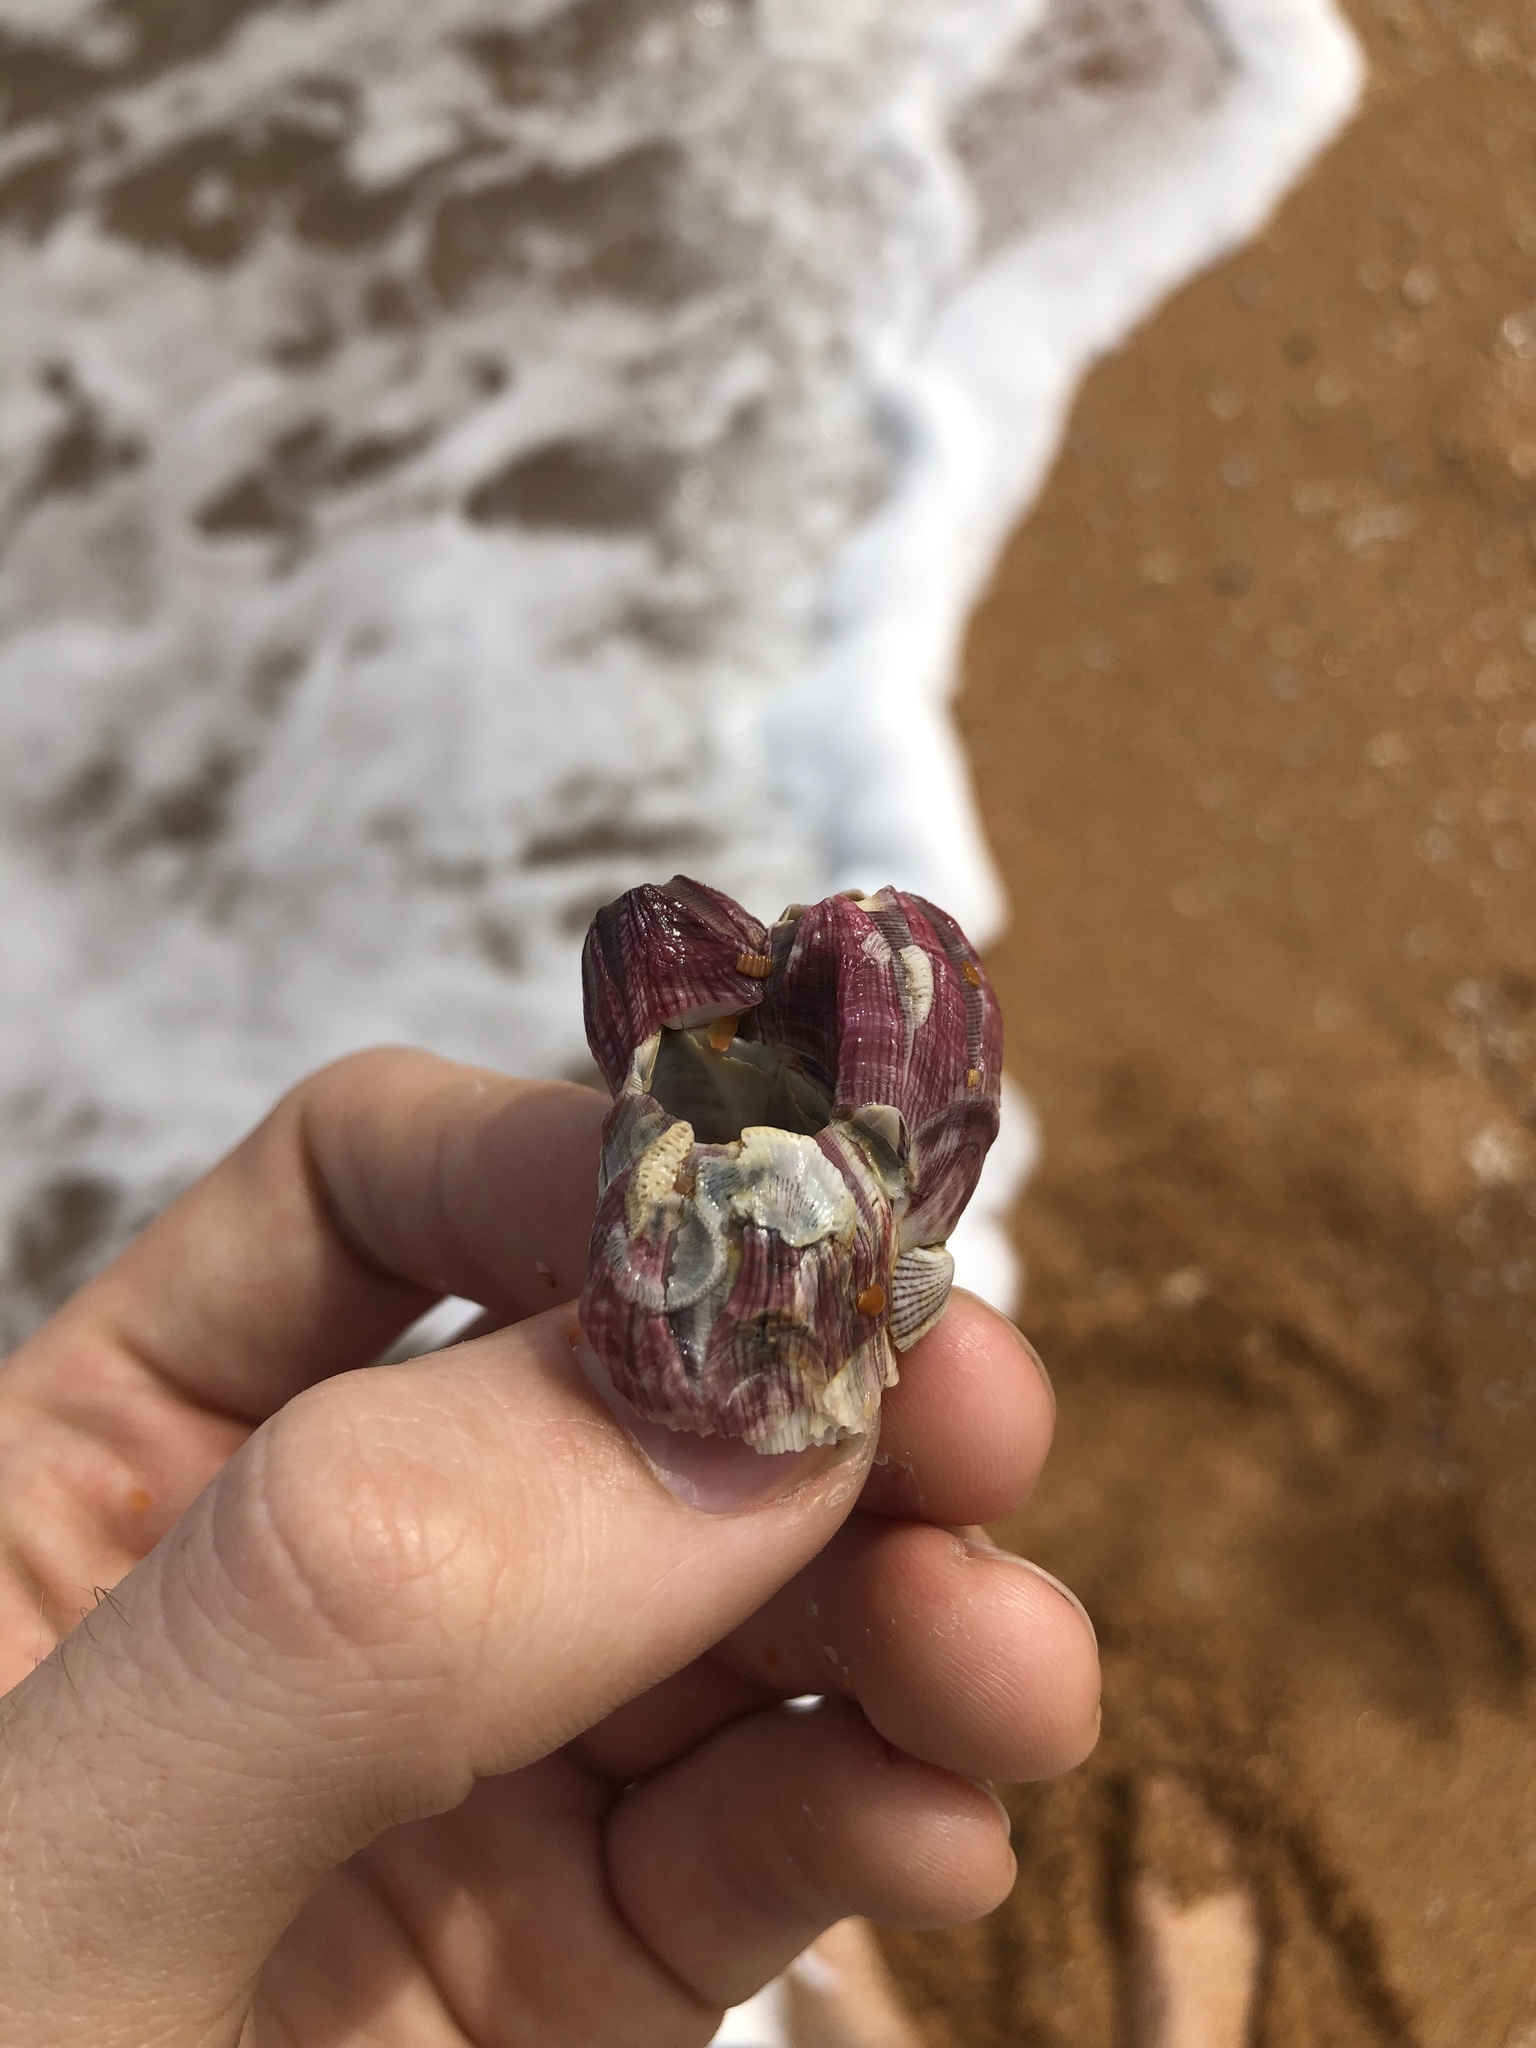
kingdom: Animalia
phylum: Arthropoda
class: Maxillopoda
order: Sessilia
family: Balanidae
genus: Megabalanus
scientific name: Megabalanus tintinnabulum
